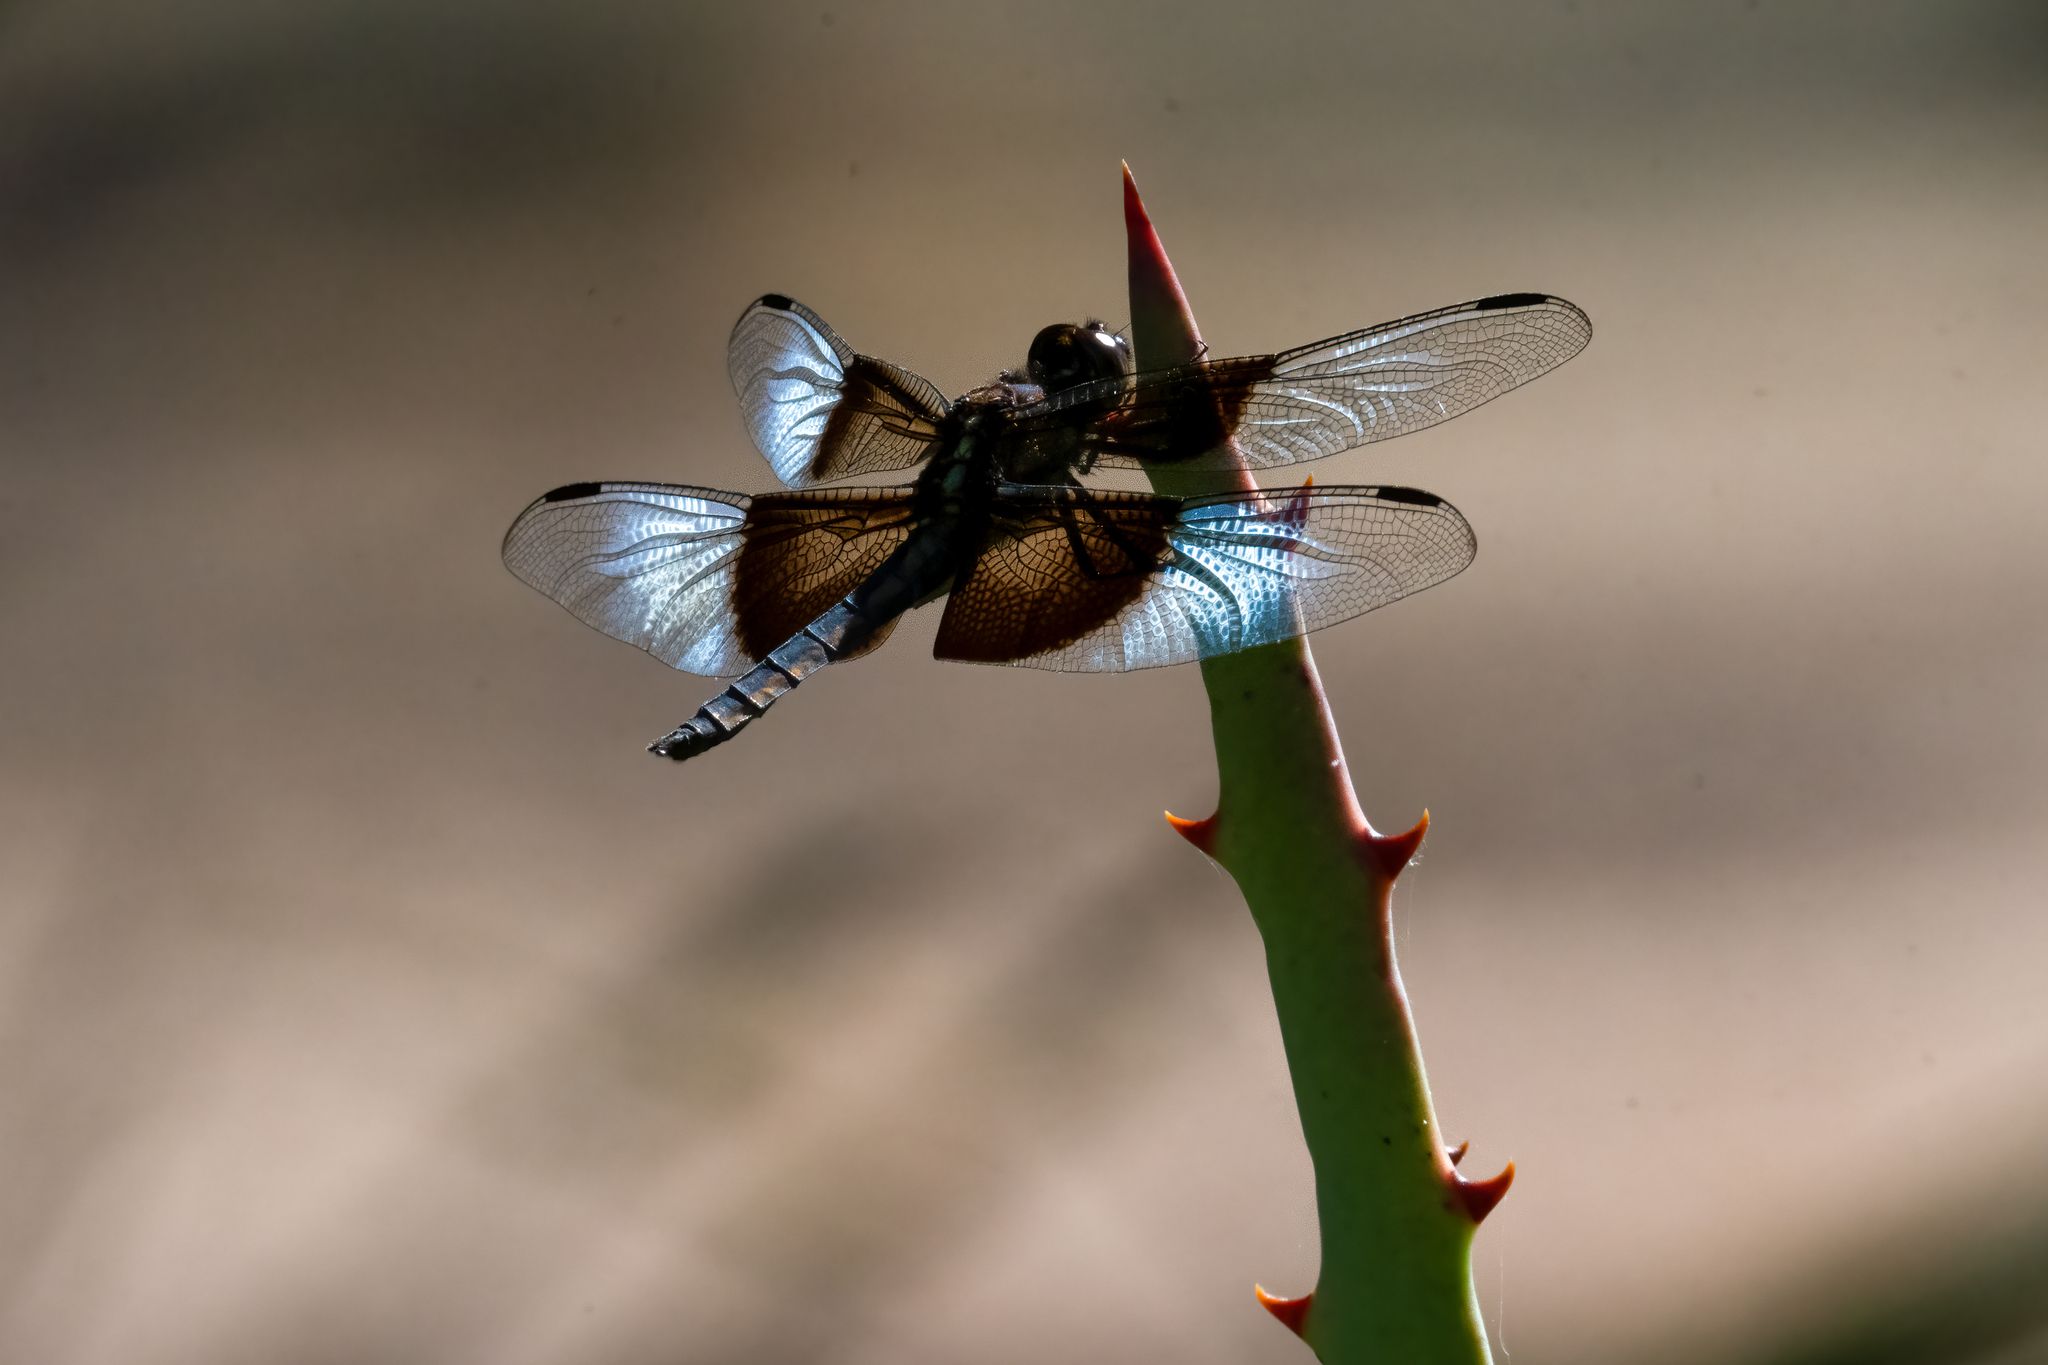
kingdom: Animalia
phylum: Arthropoda
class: Insecta
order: Odonata
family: Libellulidae
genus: Libellula
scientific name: Libellula luctuosa
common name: Widow skimmer
